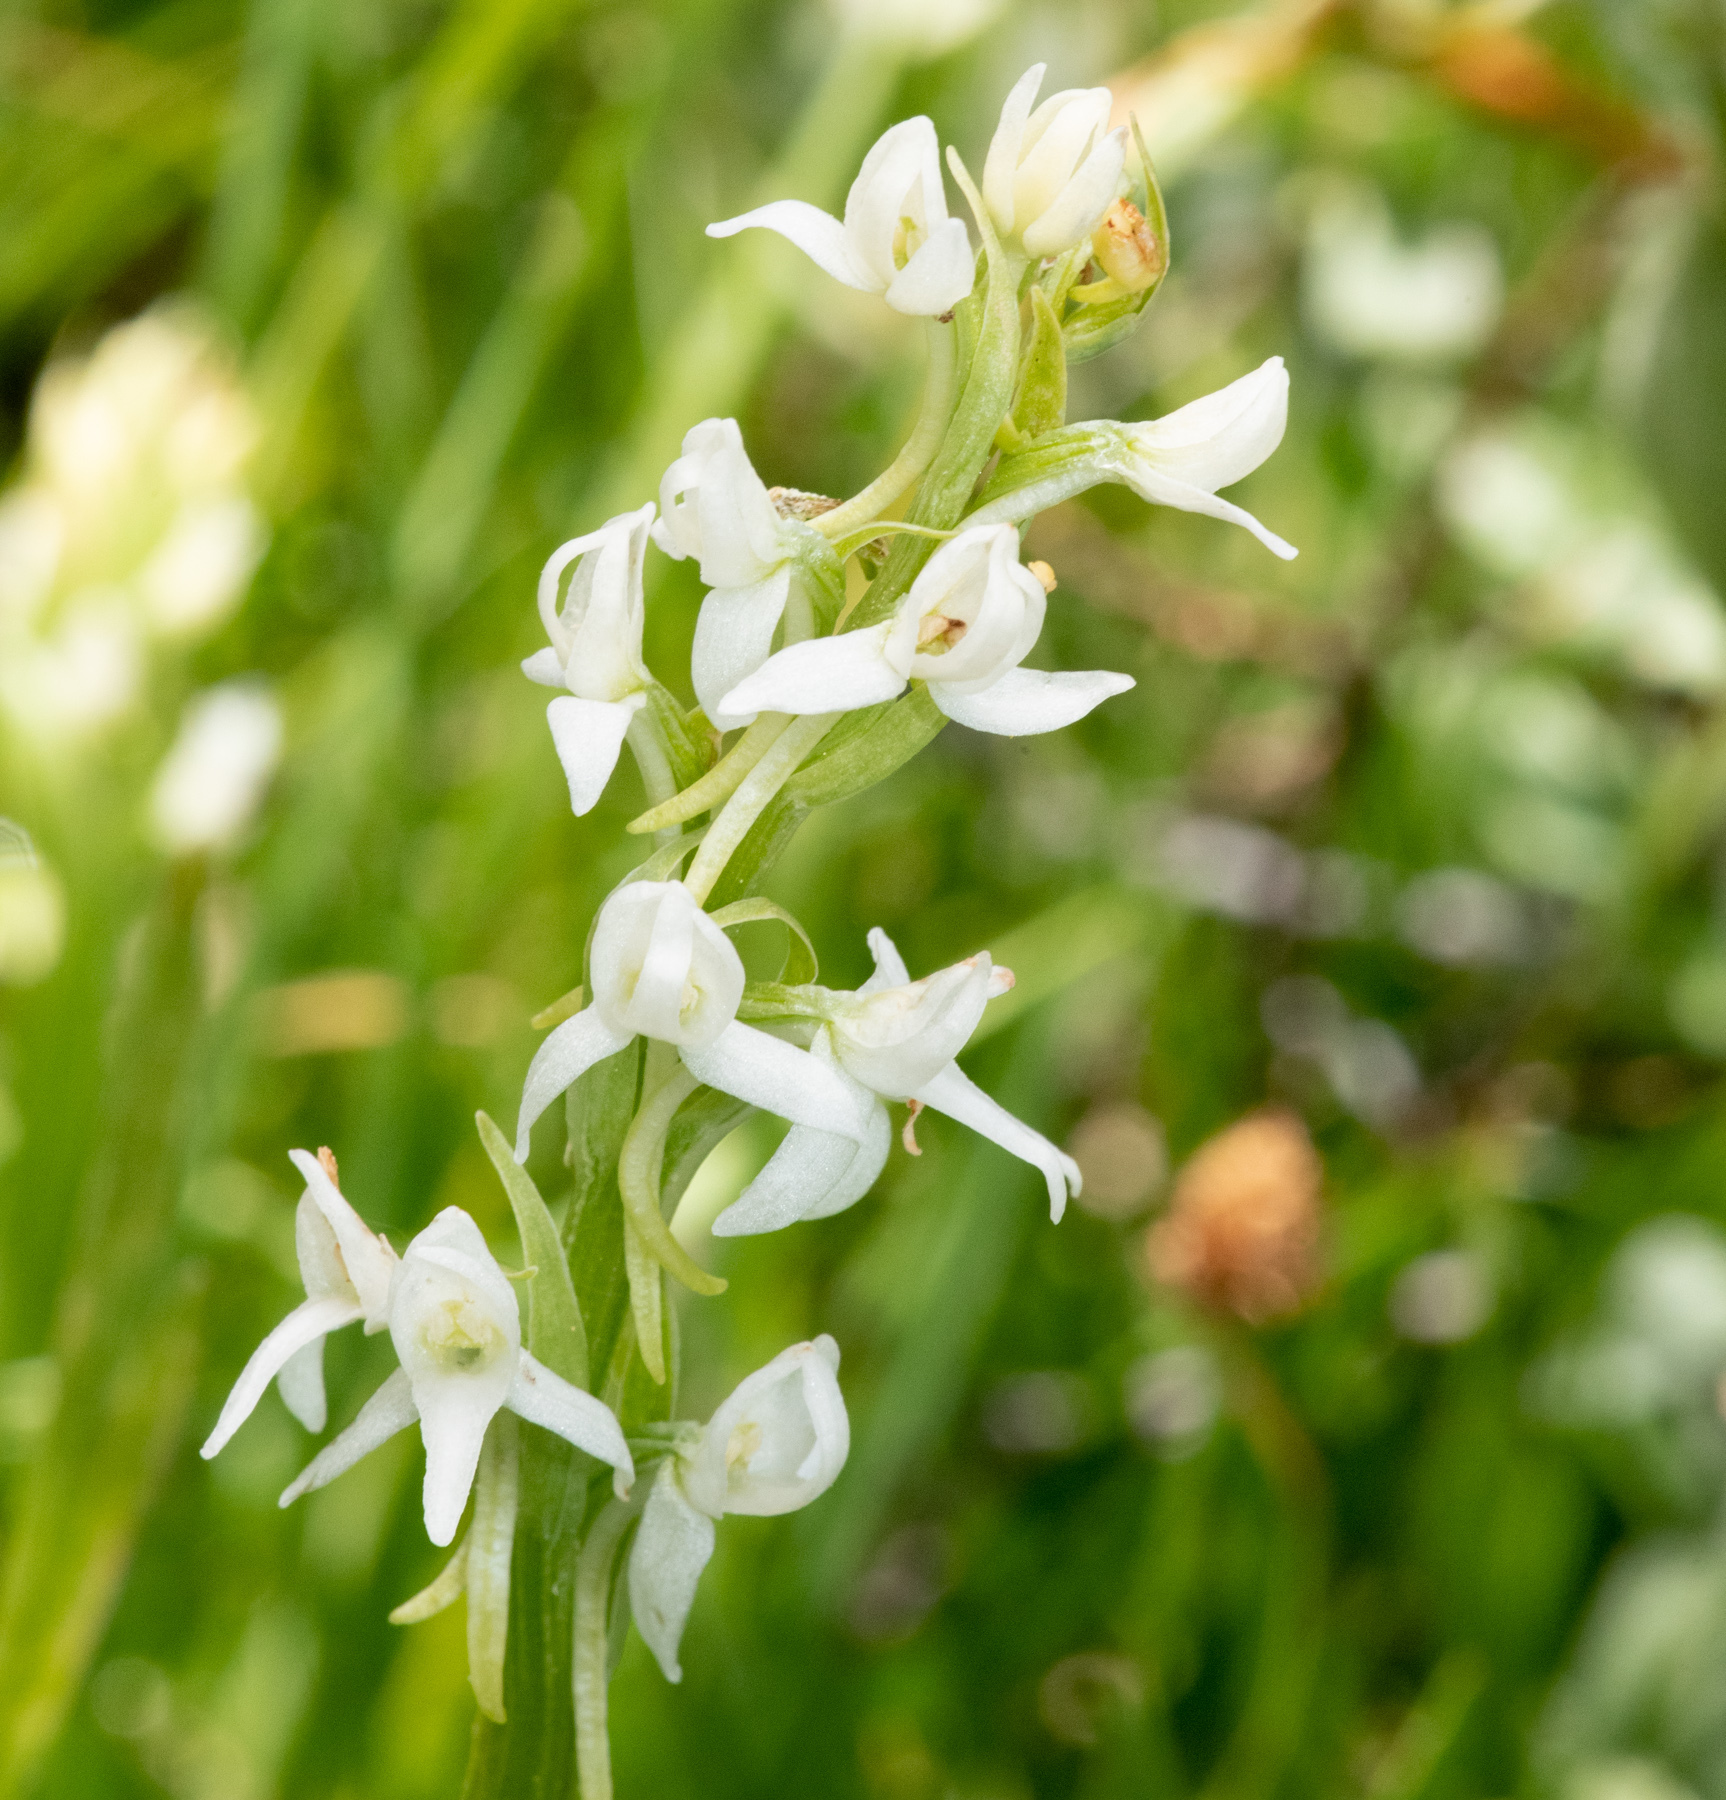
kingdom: Plantae
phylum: Tracheophyta
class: Liliopsida
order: Asparagales
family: Orchidaceae
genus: Platanthera
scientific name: Platanthera dilatata
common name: Bog candles
